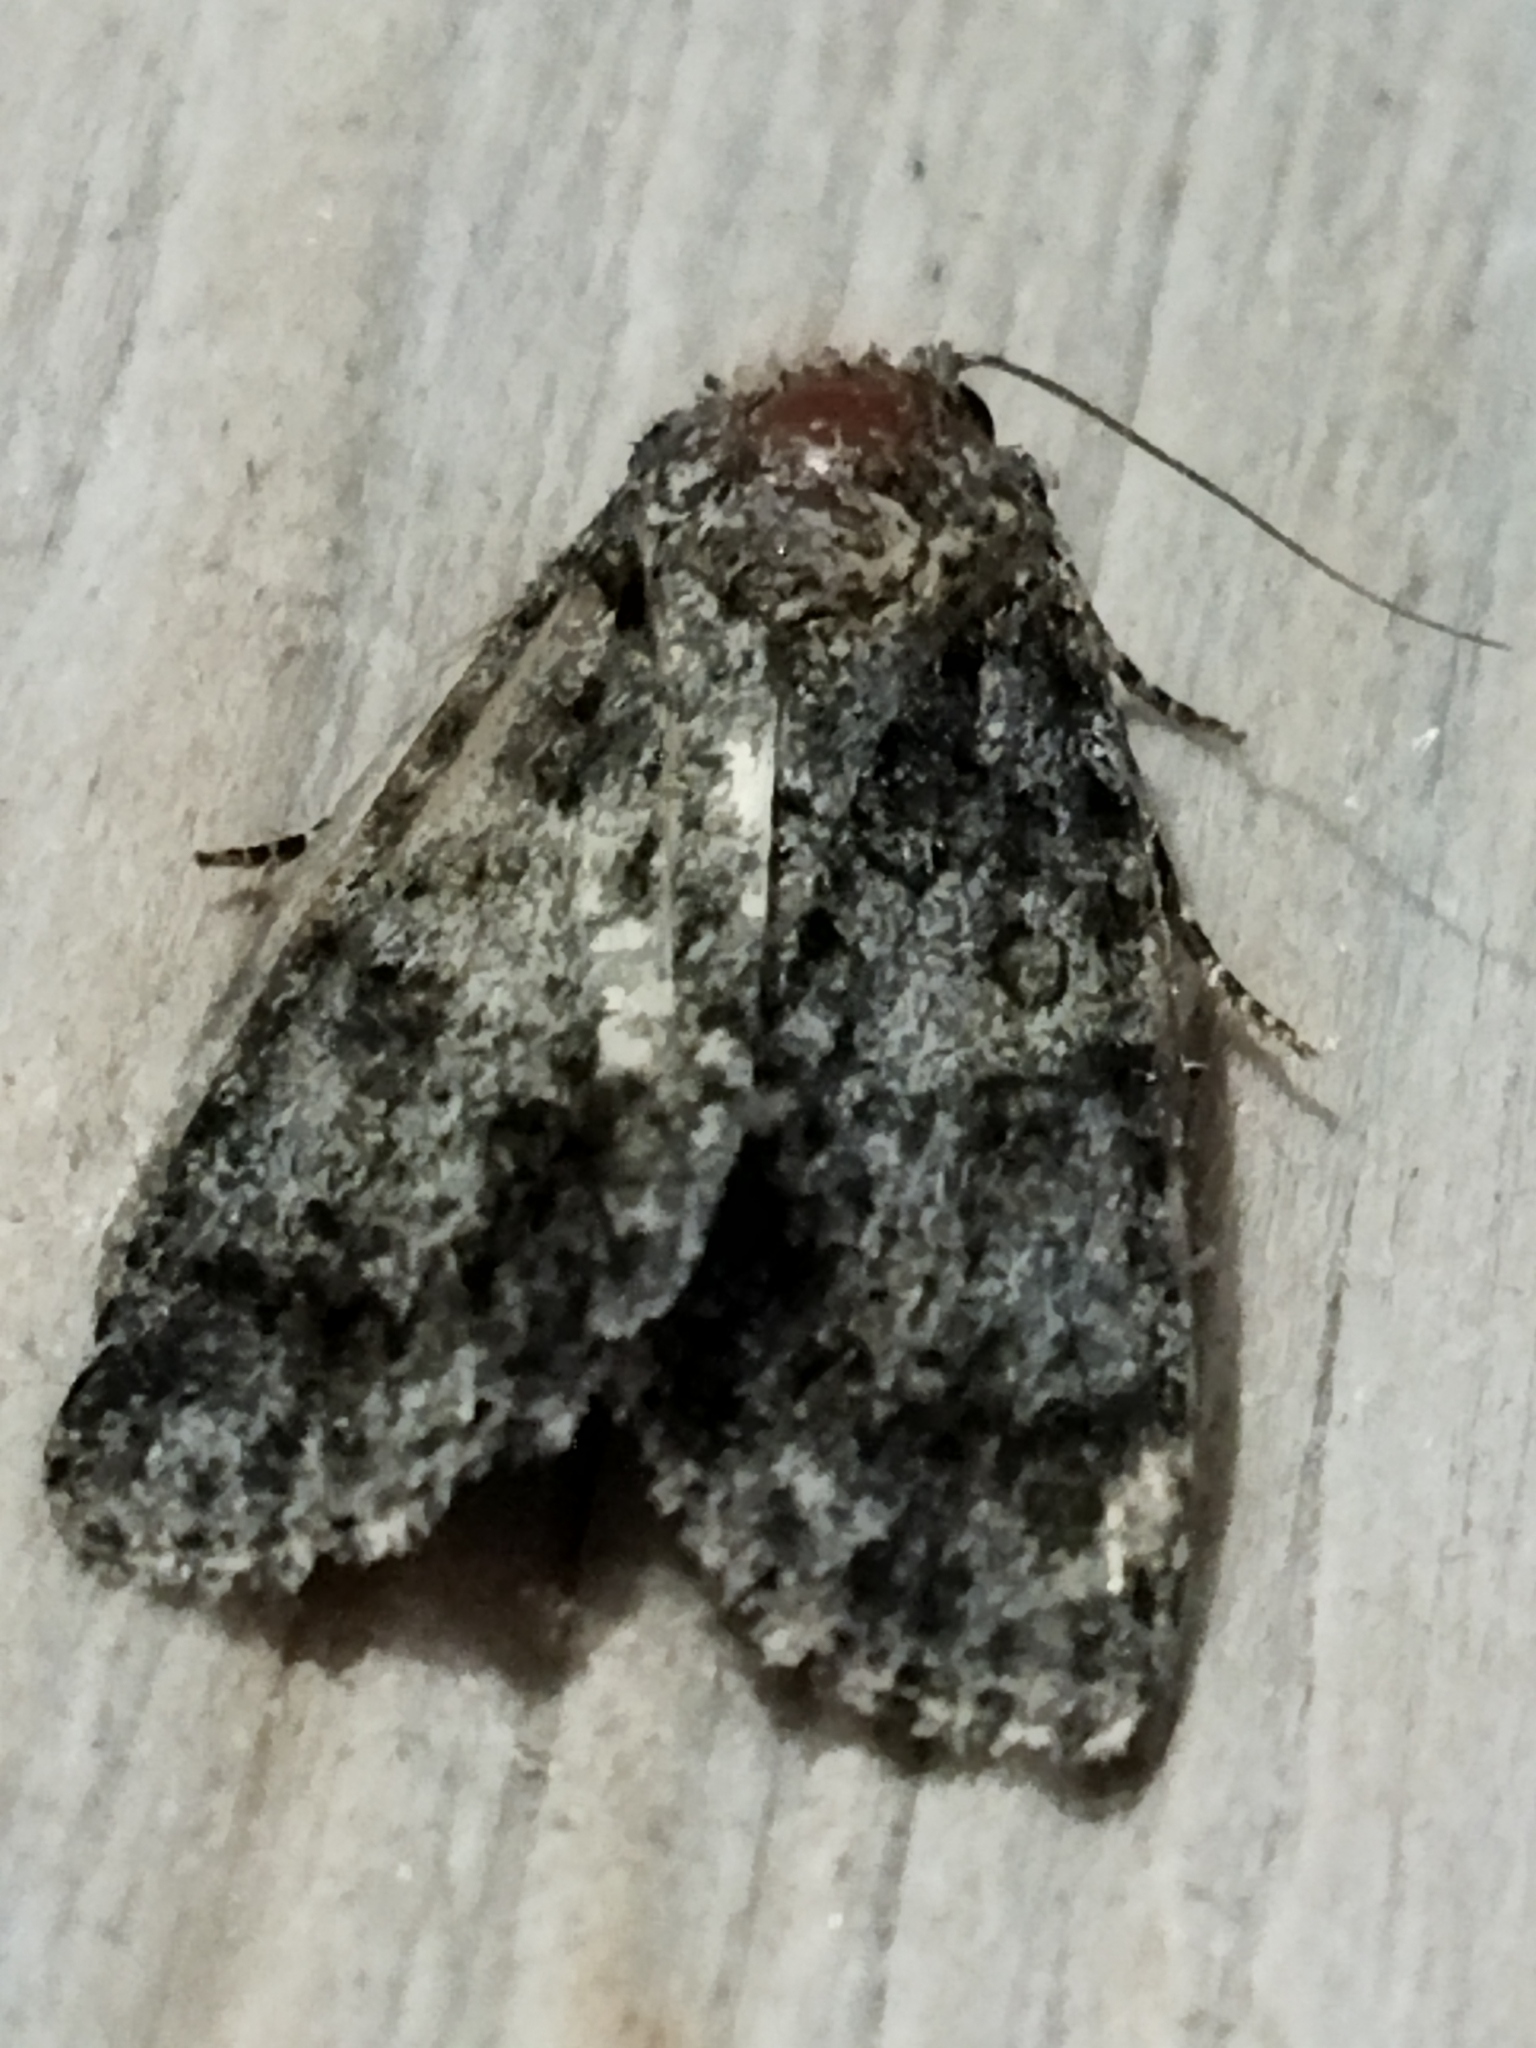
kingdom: Animalia
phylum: Arthropoda
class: Insecta
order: Lepidoptera
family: Noctuidae
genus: Acronicta
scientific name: Acronicta rumicis
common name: Knot grass
